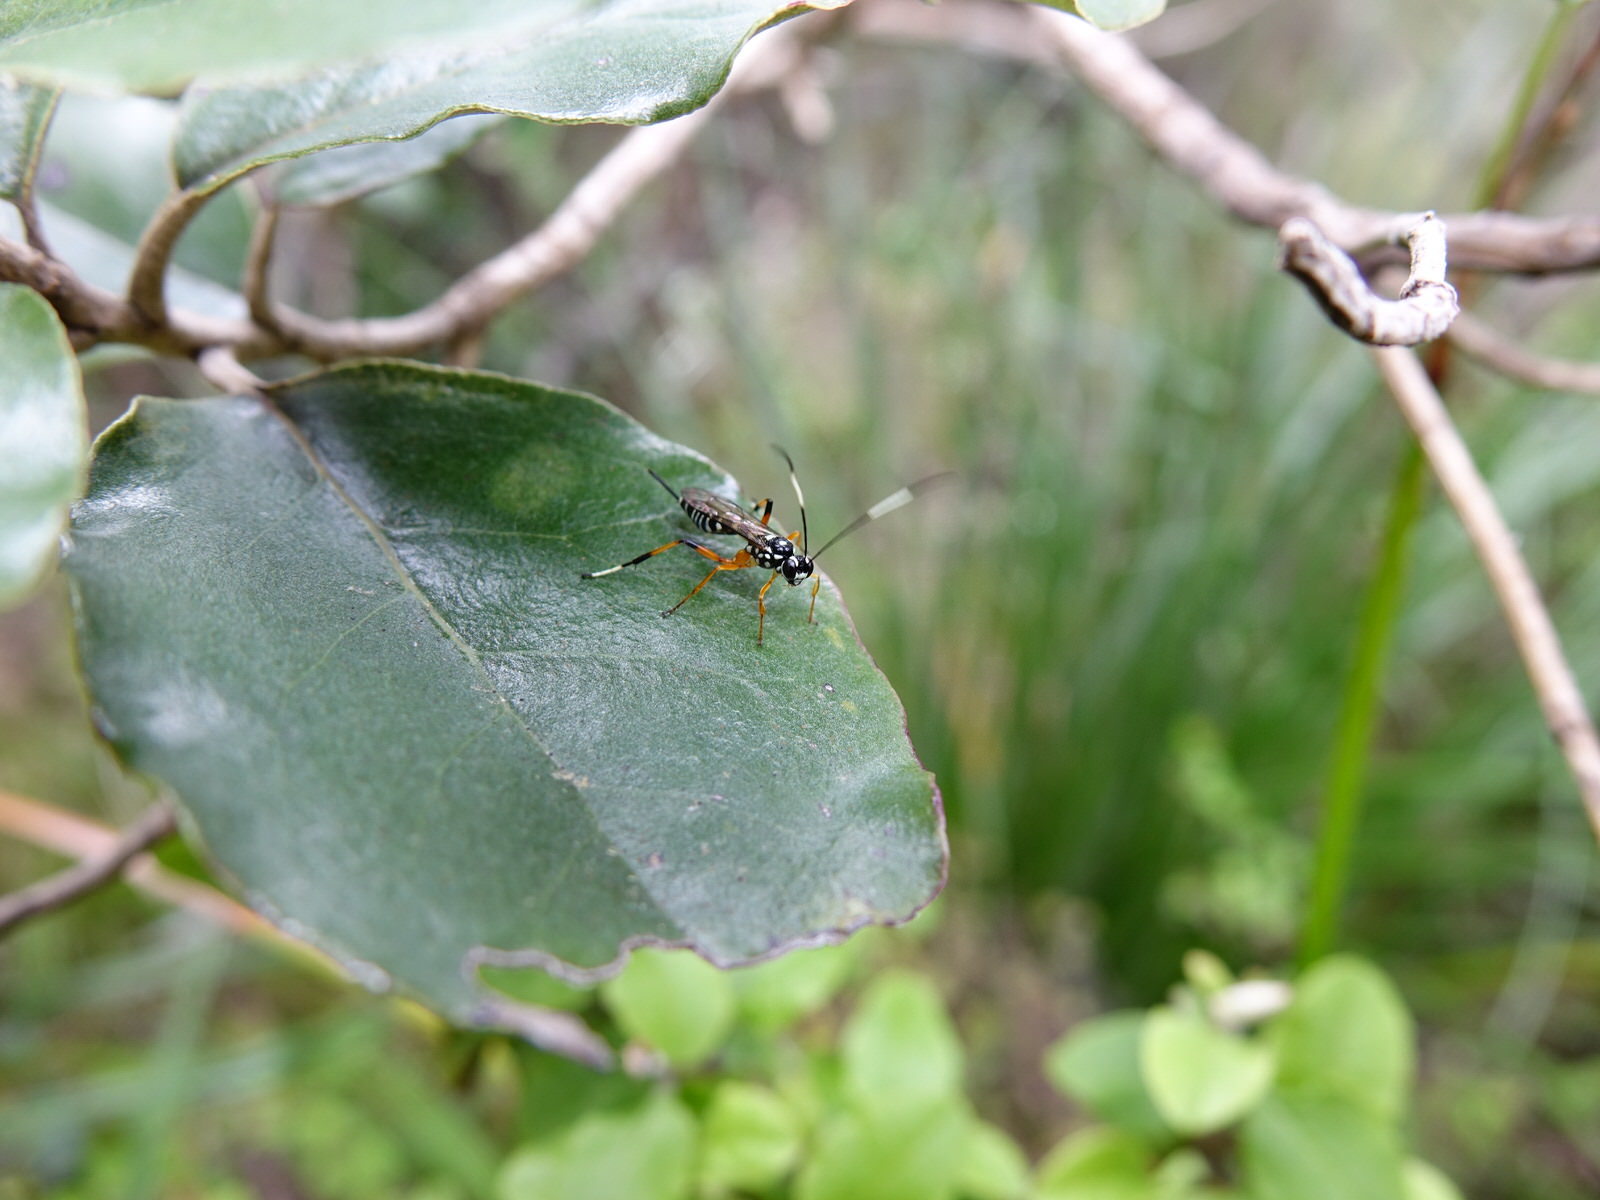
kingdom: Animalia
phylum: Arthropoda
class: Insecta
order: Hymenoptera
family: Ichneumonidae
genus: Xanthocryptus
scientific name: Xanthocryptus novozealandicus
